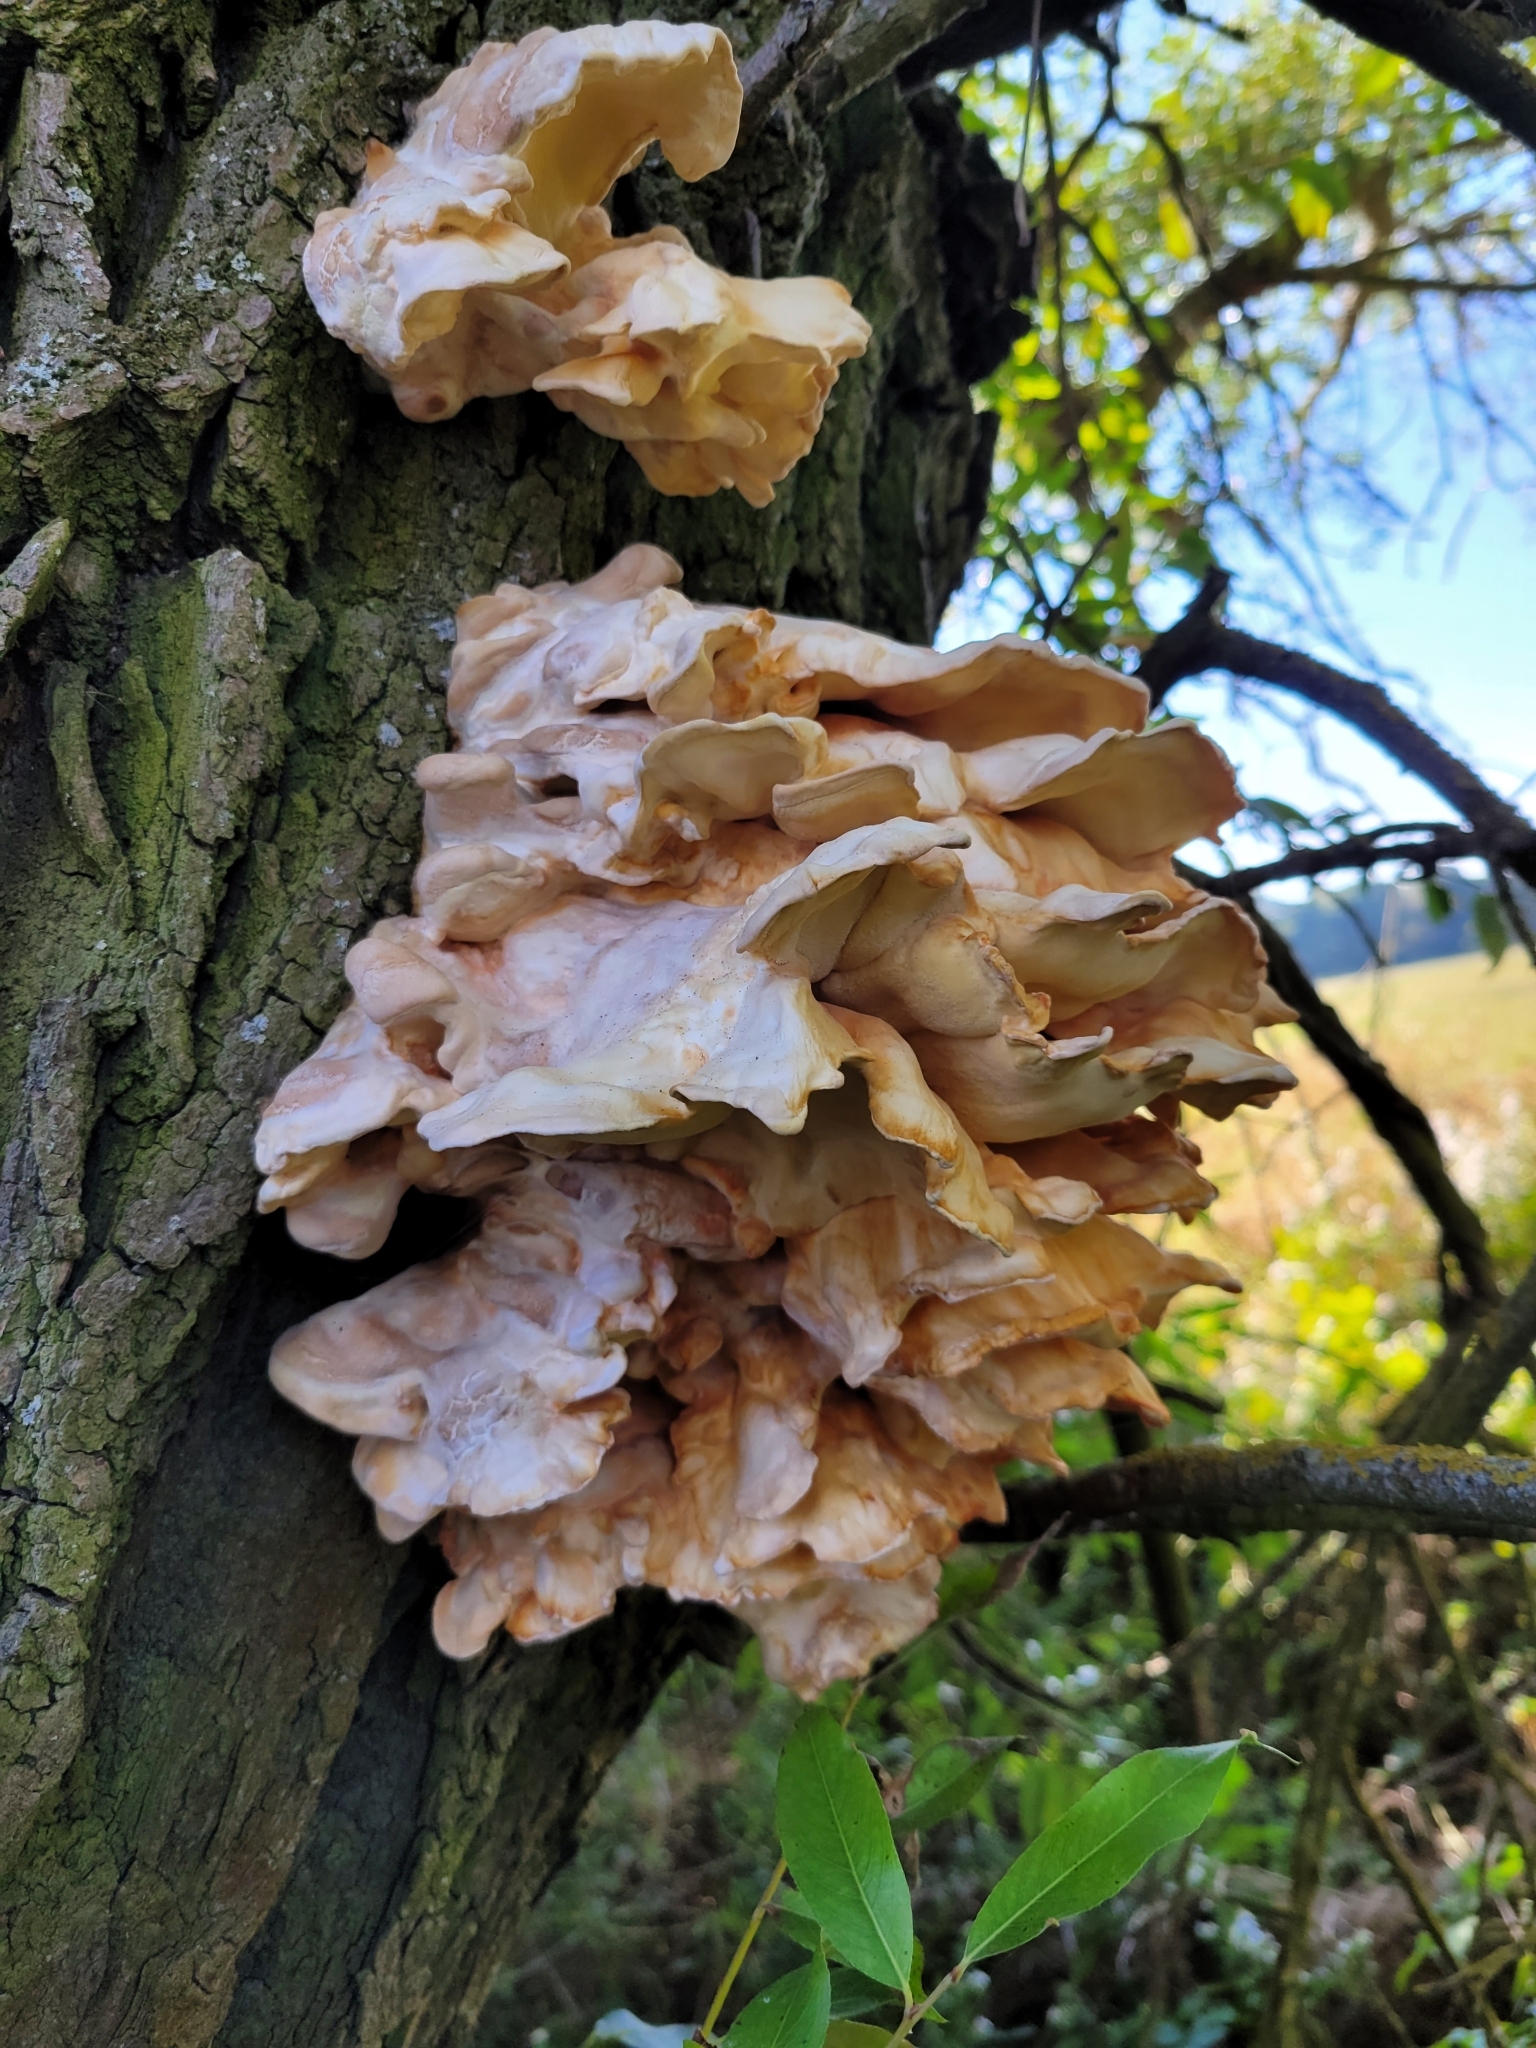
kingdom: Fungi
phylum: Basidiomycota
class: Agaricomycetes
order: Polyporales
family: Laetiporaceae
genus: Laetiporus
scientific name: Laetiporus sulphureus
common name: Chicken of the woods
